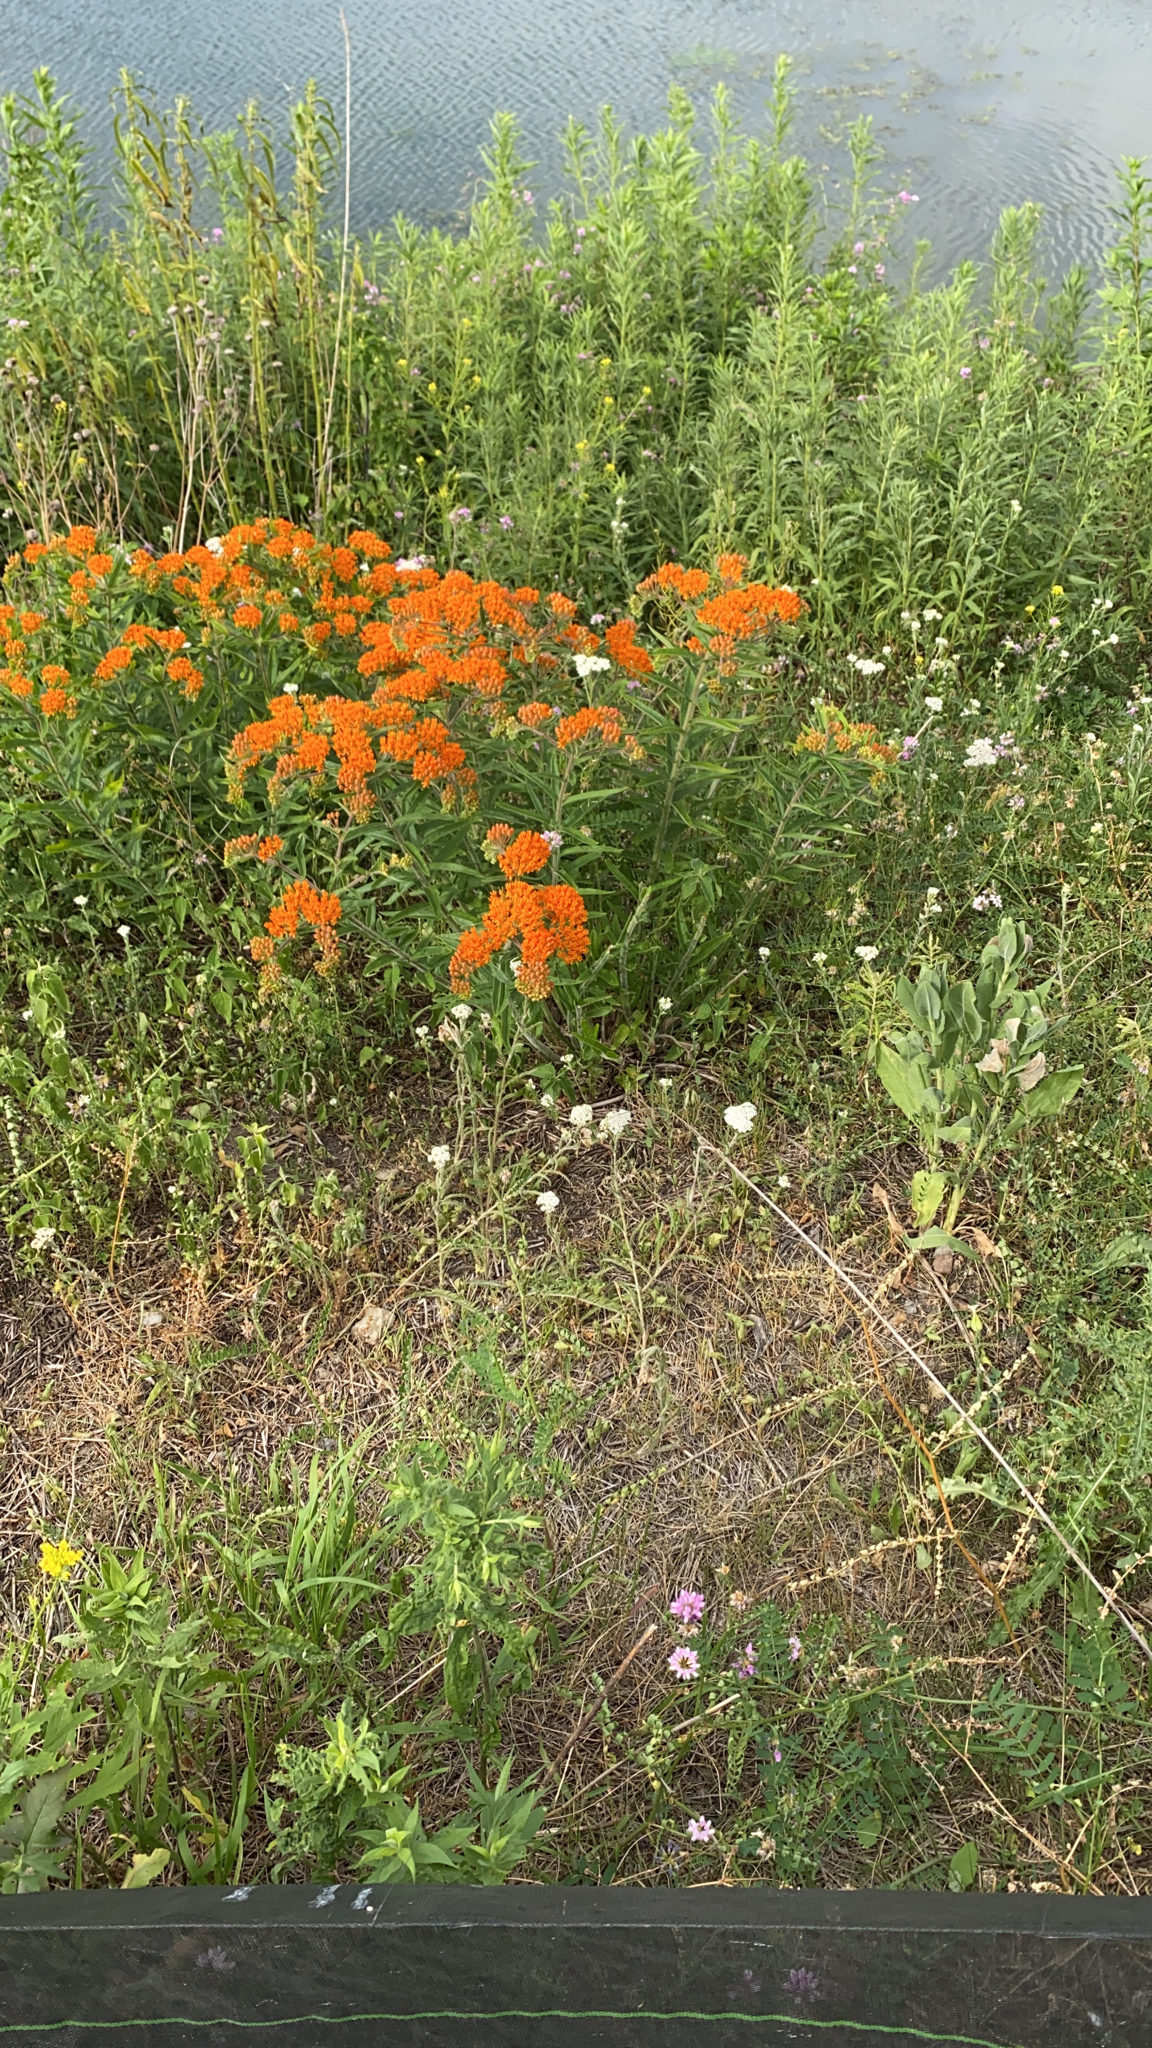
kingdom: Plantae
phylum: Tracheophyta
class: Magnoliopsida
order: Gentianales
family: Apocynaceae
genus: Asclepias
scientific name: Asclepias tuberosa
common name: Butterfly milkweed
